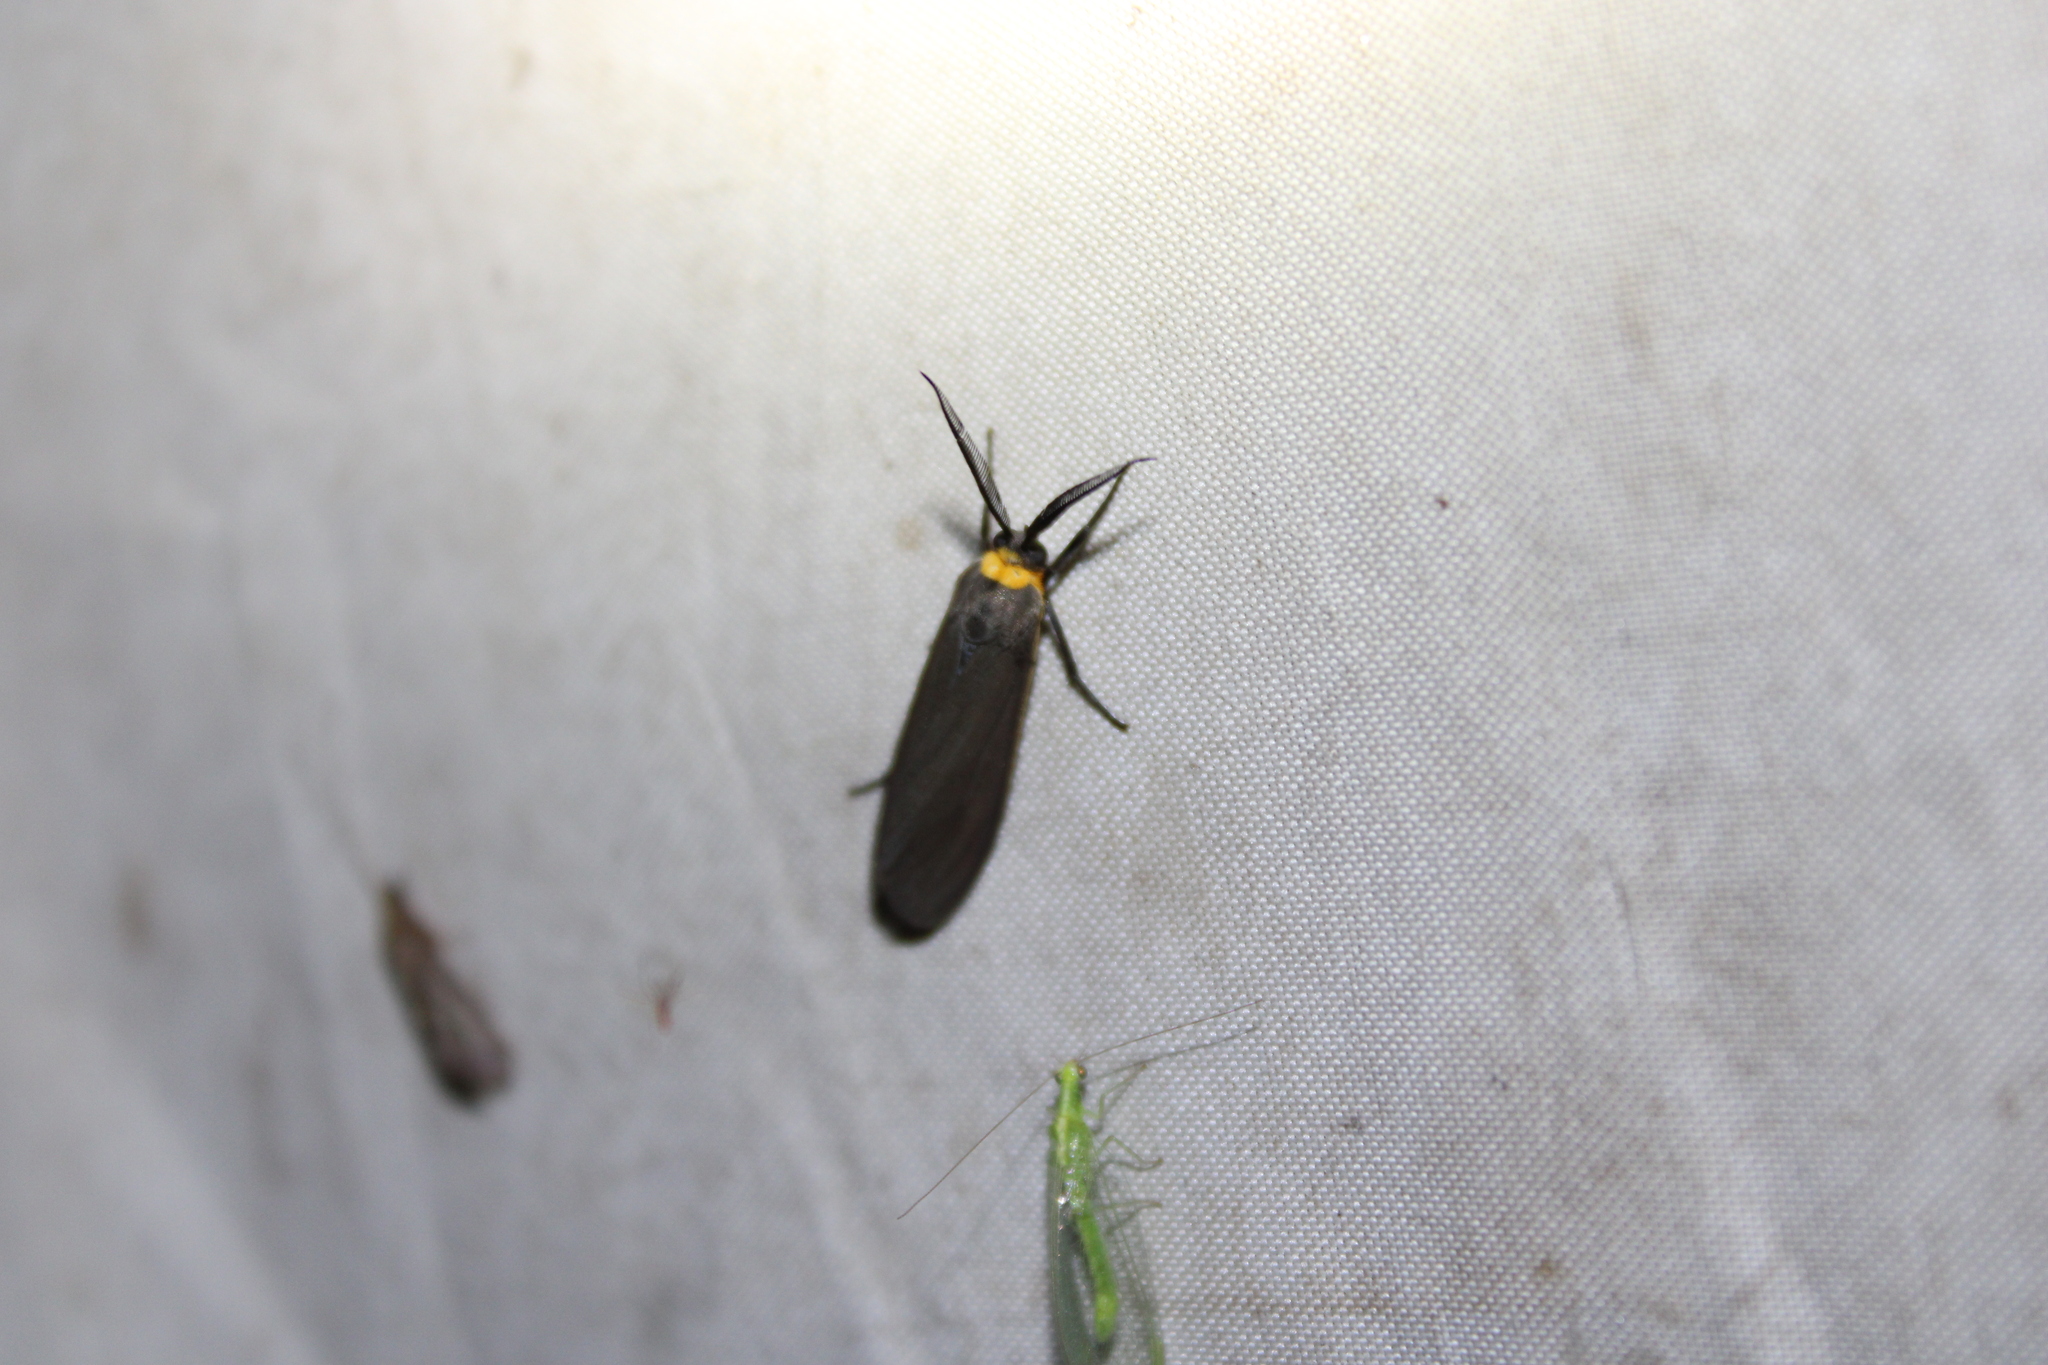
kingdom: Animalia
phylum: Arthropoda
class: Insecta
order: Lepidoptera
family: Erebidae
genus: Cisseps
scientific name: Cisseps fulvicollis
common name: Yellow-collared scape moth
